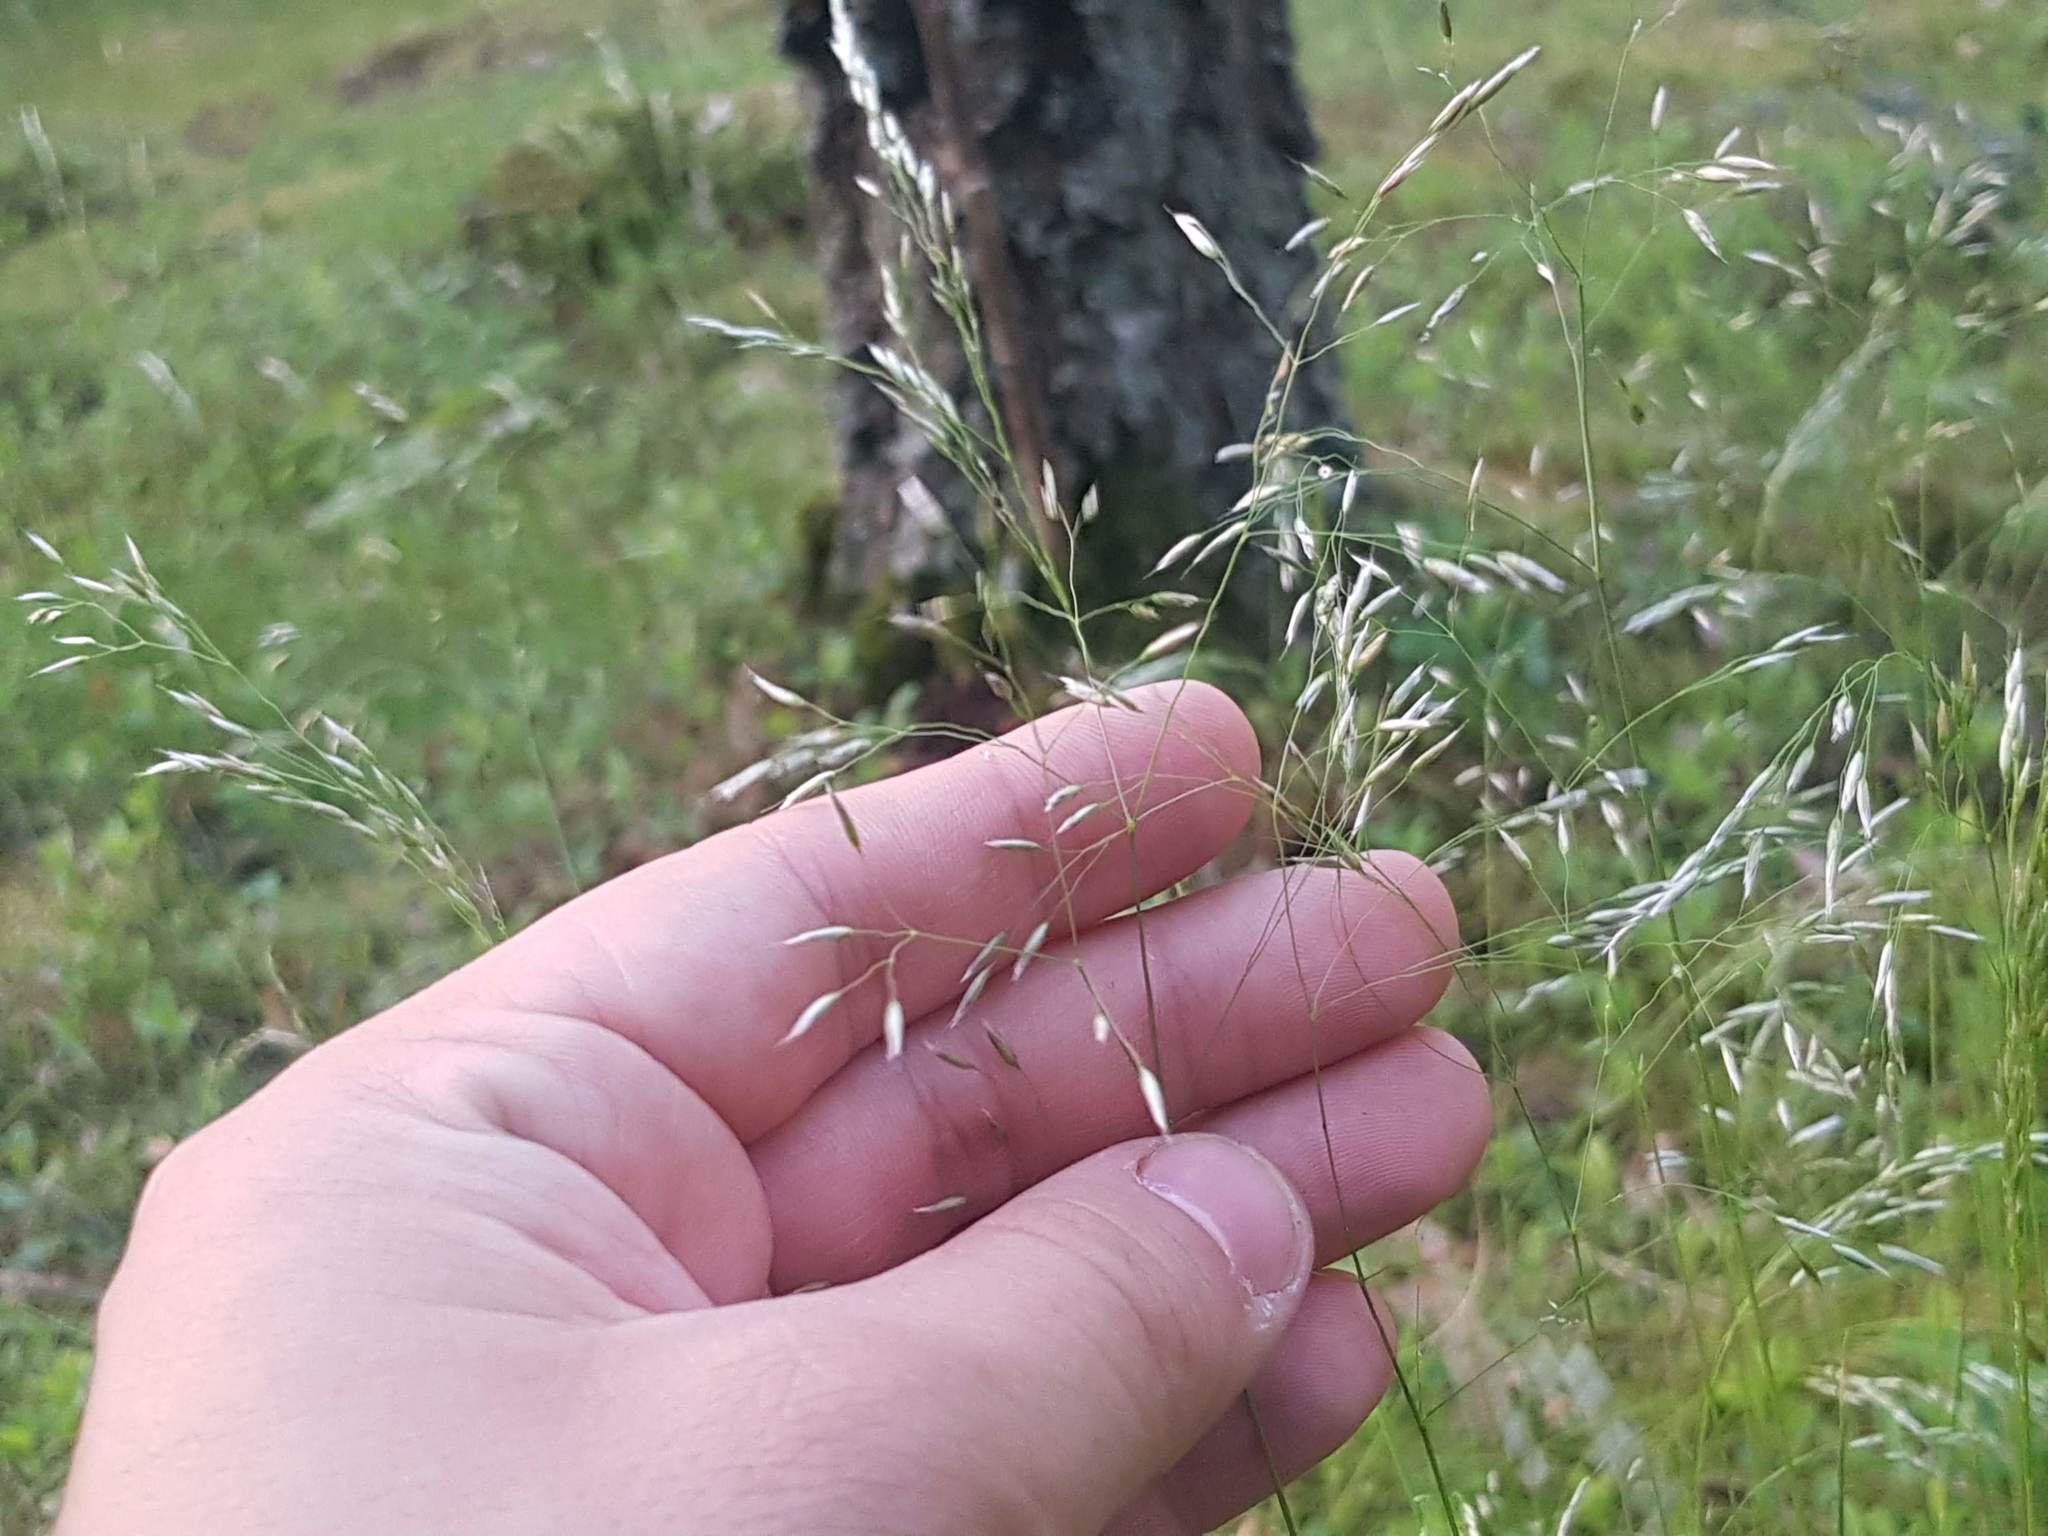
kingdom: Plantae
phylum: Tracheophyta
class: Liliopsida
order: Poales
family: Poaceae
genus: Avenella
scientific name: Avenella flexuosa
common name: Wavy hairgrass
